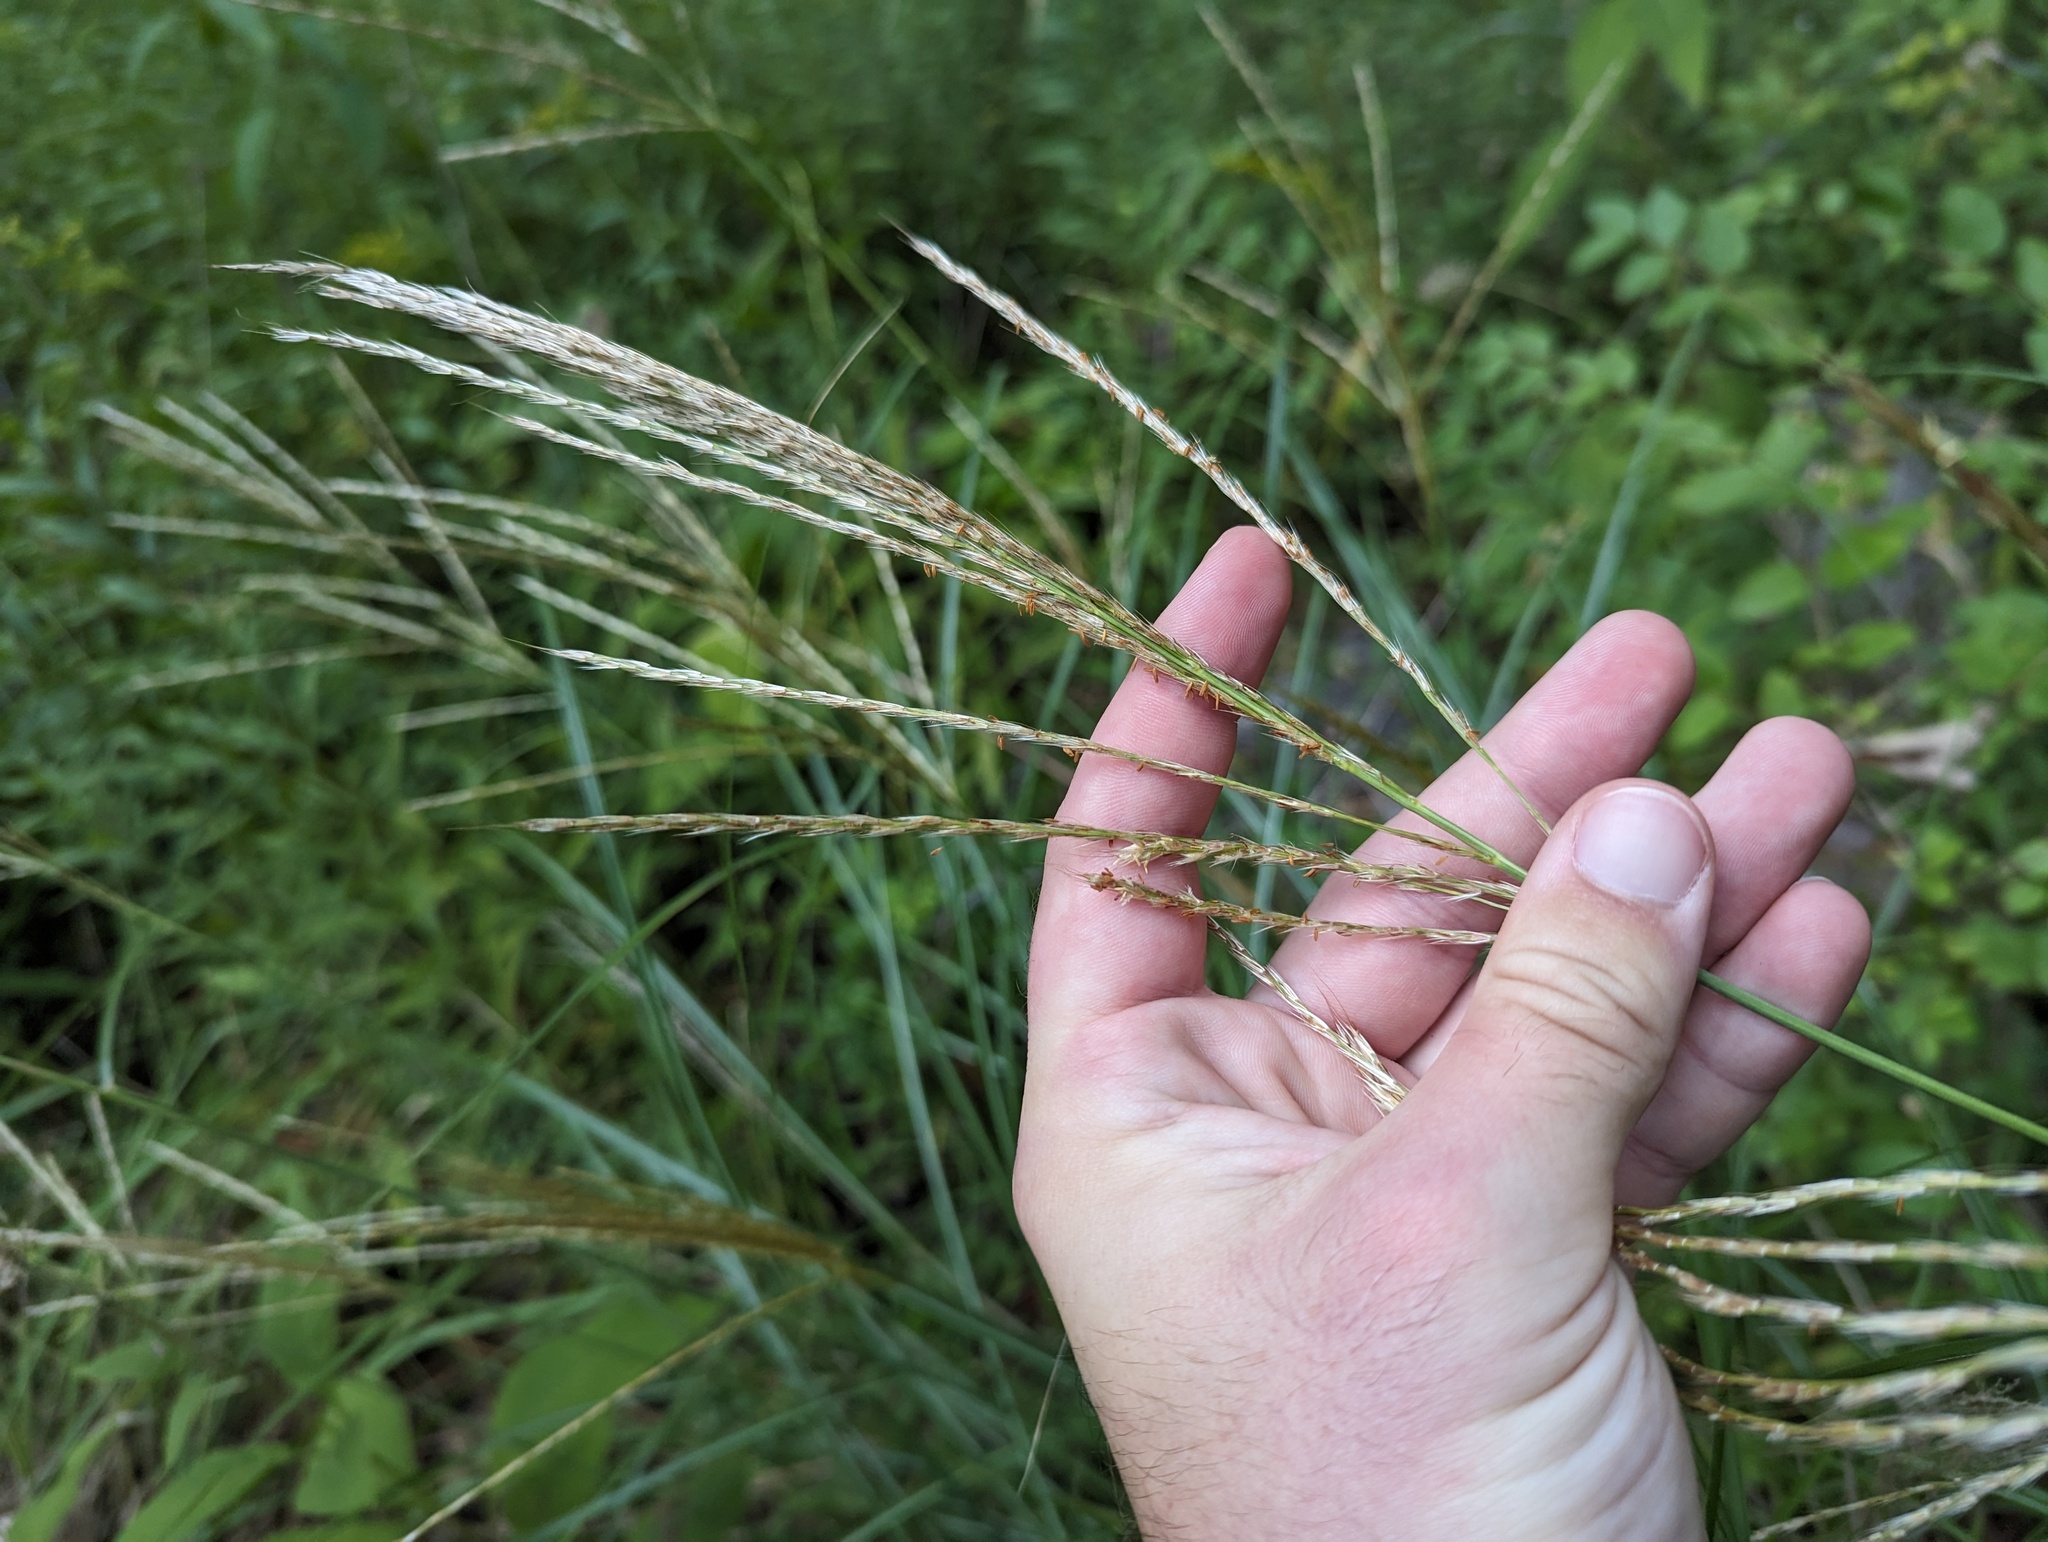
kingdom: Plantae
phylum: Tracheophyta
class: Liliopsida
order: Poales
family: Poaceae
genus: Miscanthus
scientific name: Miscanthus sinensis
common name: Chinese silvergrass
